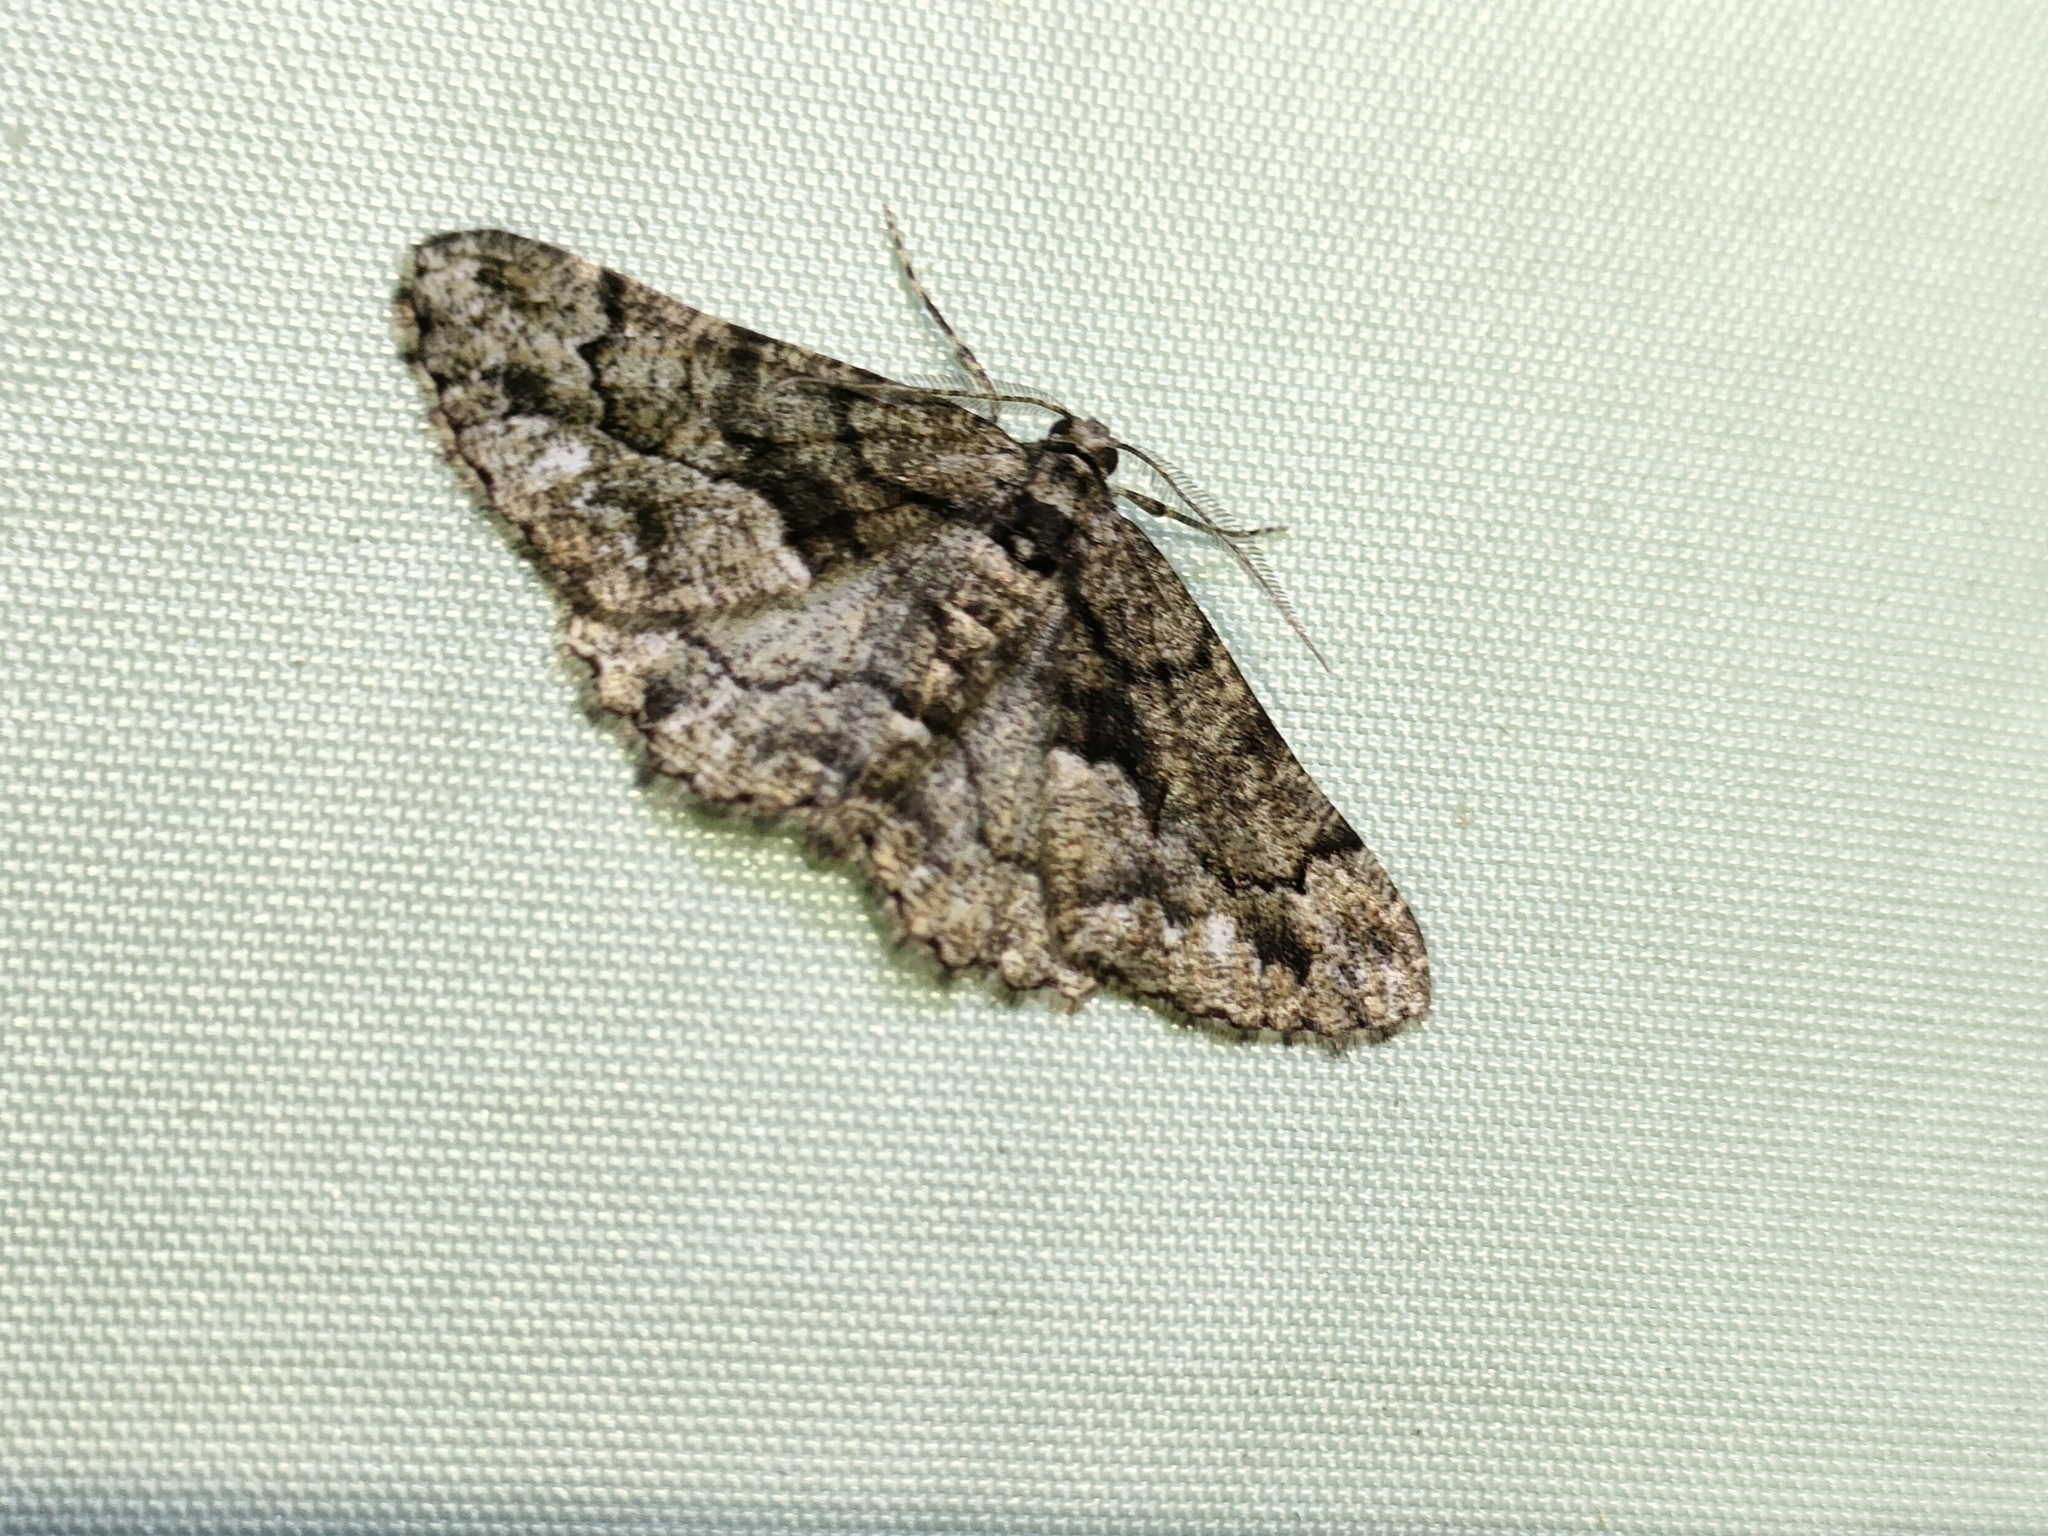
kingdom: Animalia
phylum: Arthropoda
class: Insecta
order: Lepidoptera
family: Geometridae
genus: Peribatodes
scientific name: Peribatodes ilicaria
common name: Lydd beauty
